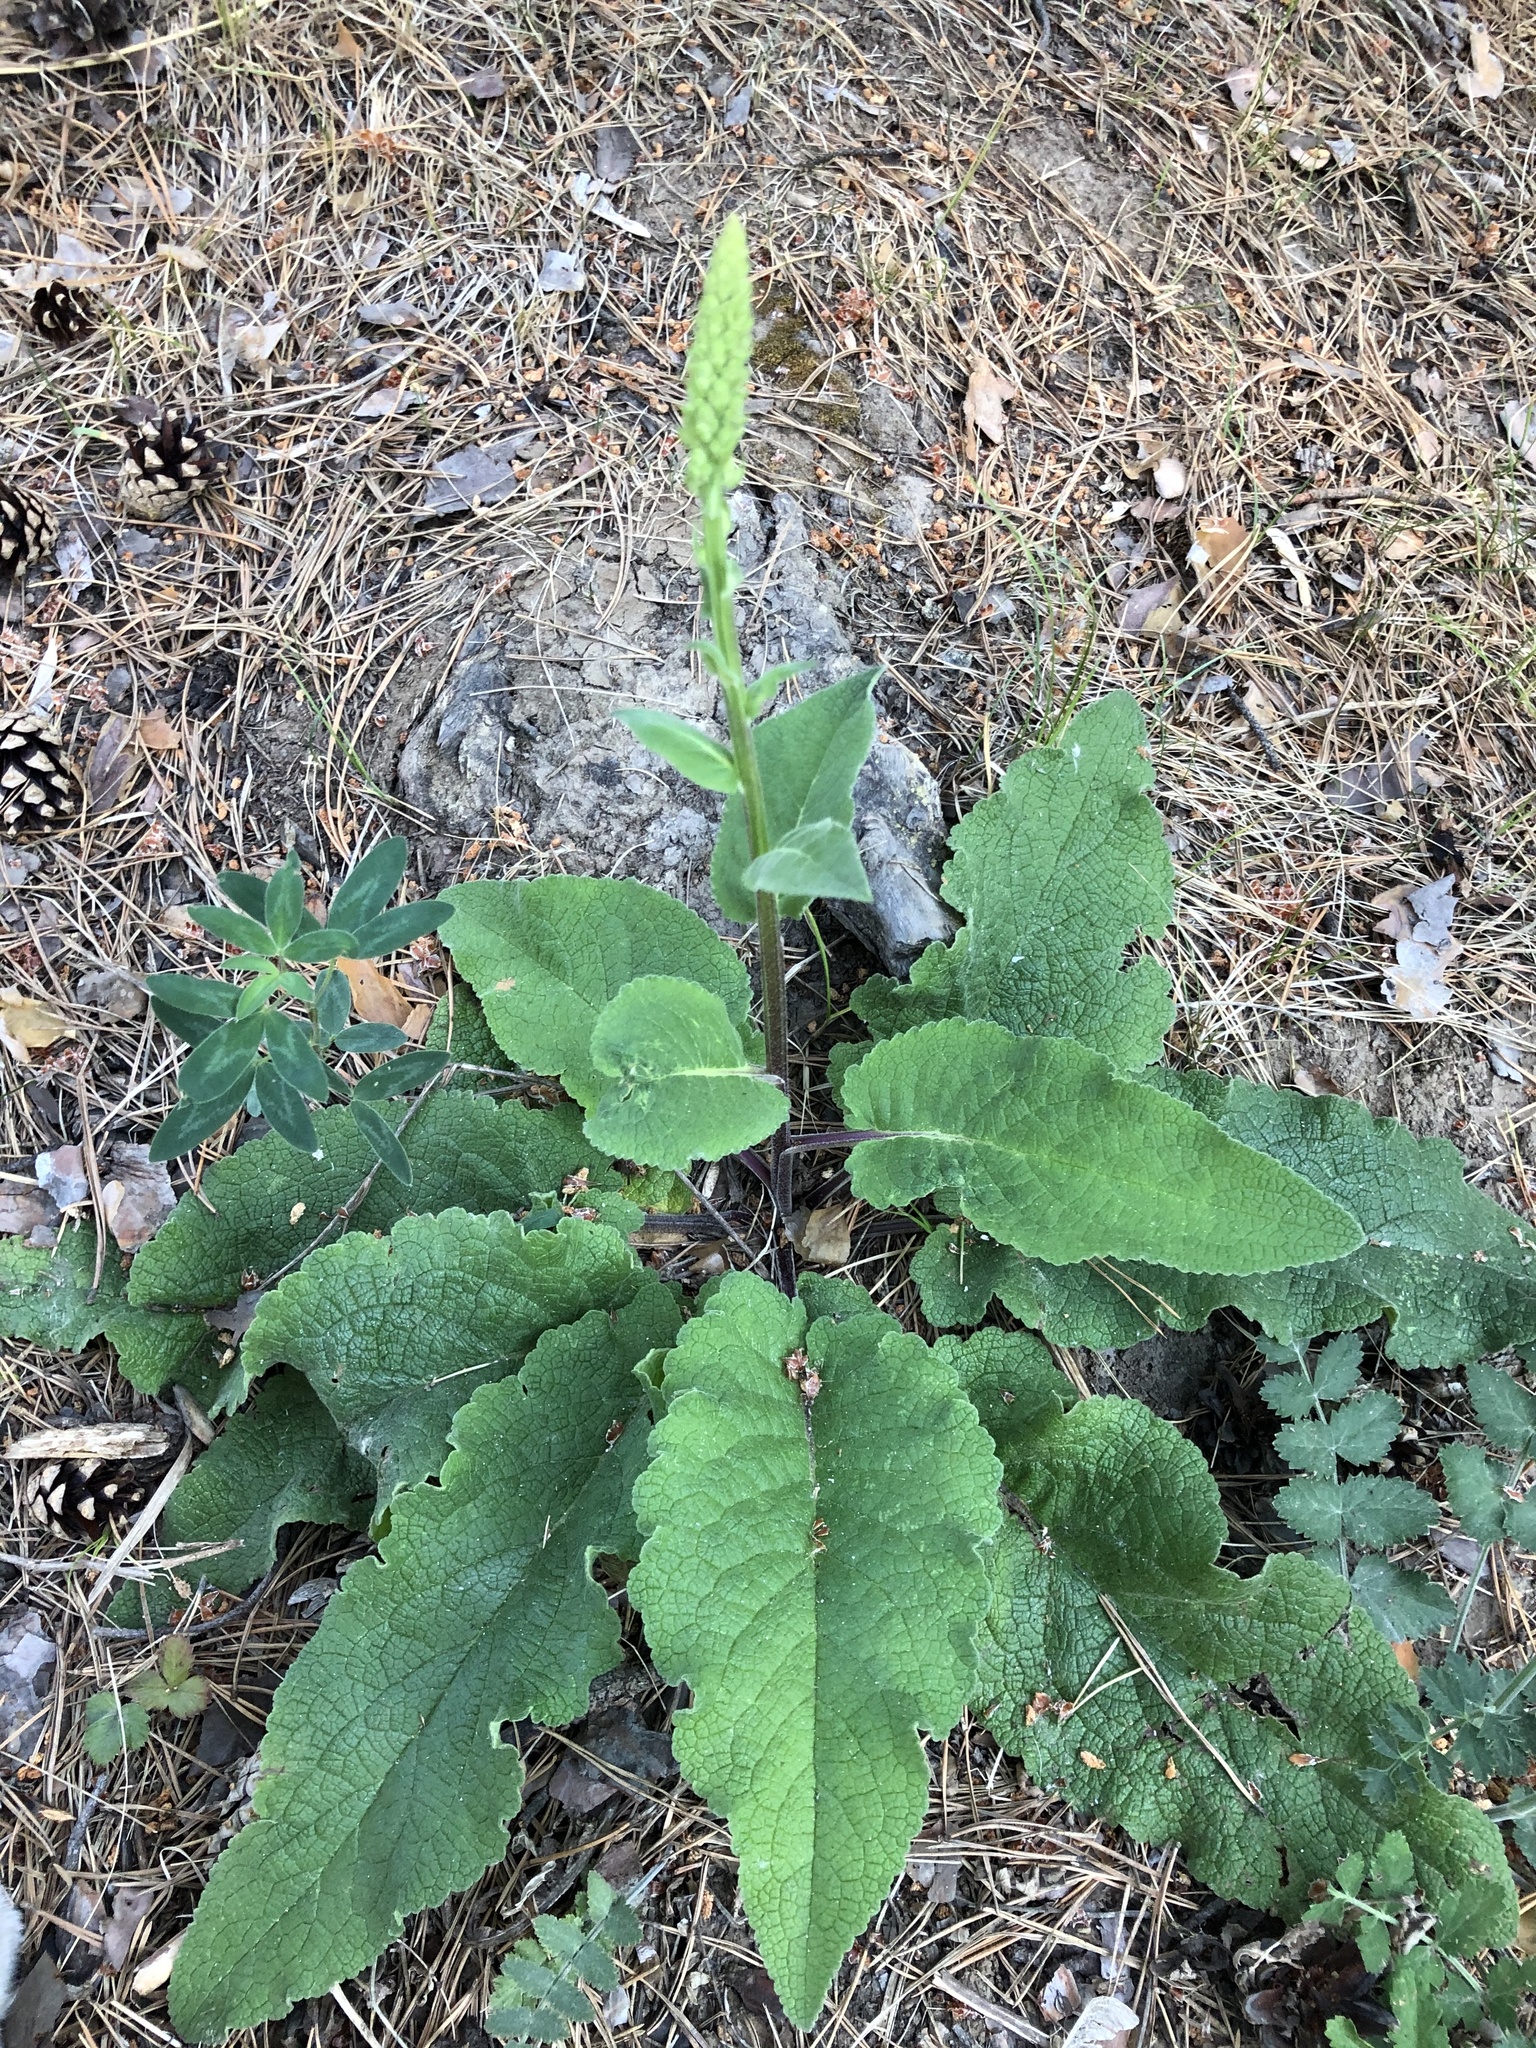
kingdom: Plantae
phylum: Tracheophyta
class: Magnoliopsida
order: Lamiales
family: Scrophulariaceae
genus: Verbascum
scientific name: Verbascum nigrum
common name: Dark mullein
